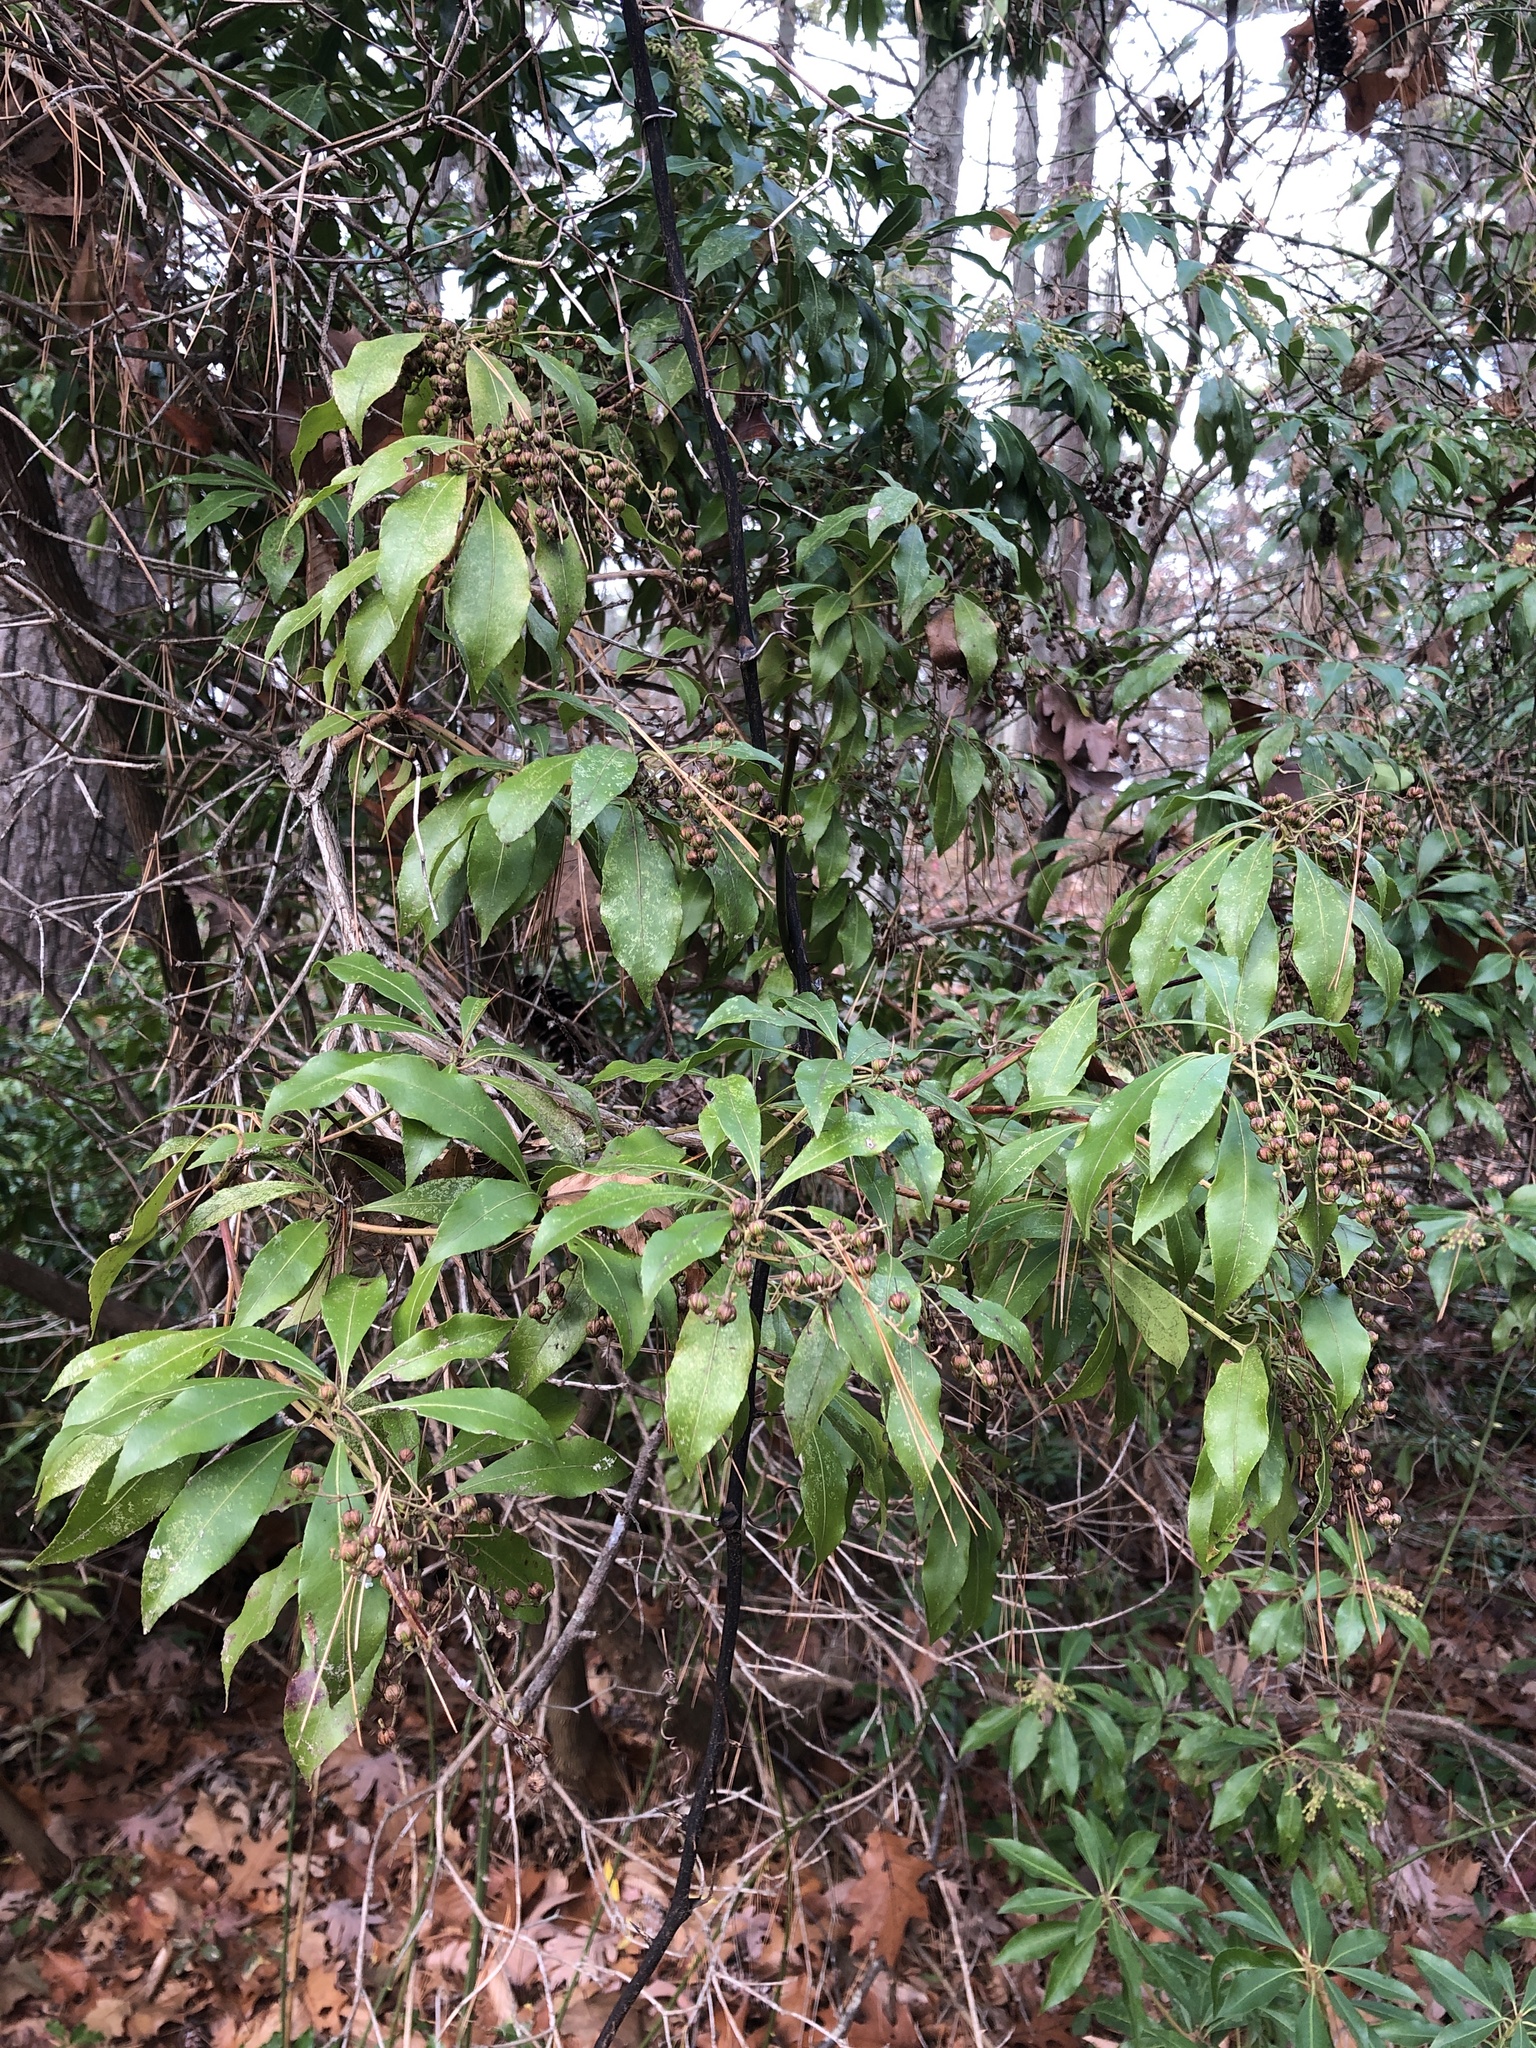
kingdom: Plantae
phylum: Tracheophyta
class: Magnoliopsida
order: Ericales
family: Ericaceae
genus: Kalmia
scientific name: Kalmia latifolia
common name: Mountain-laurel
